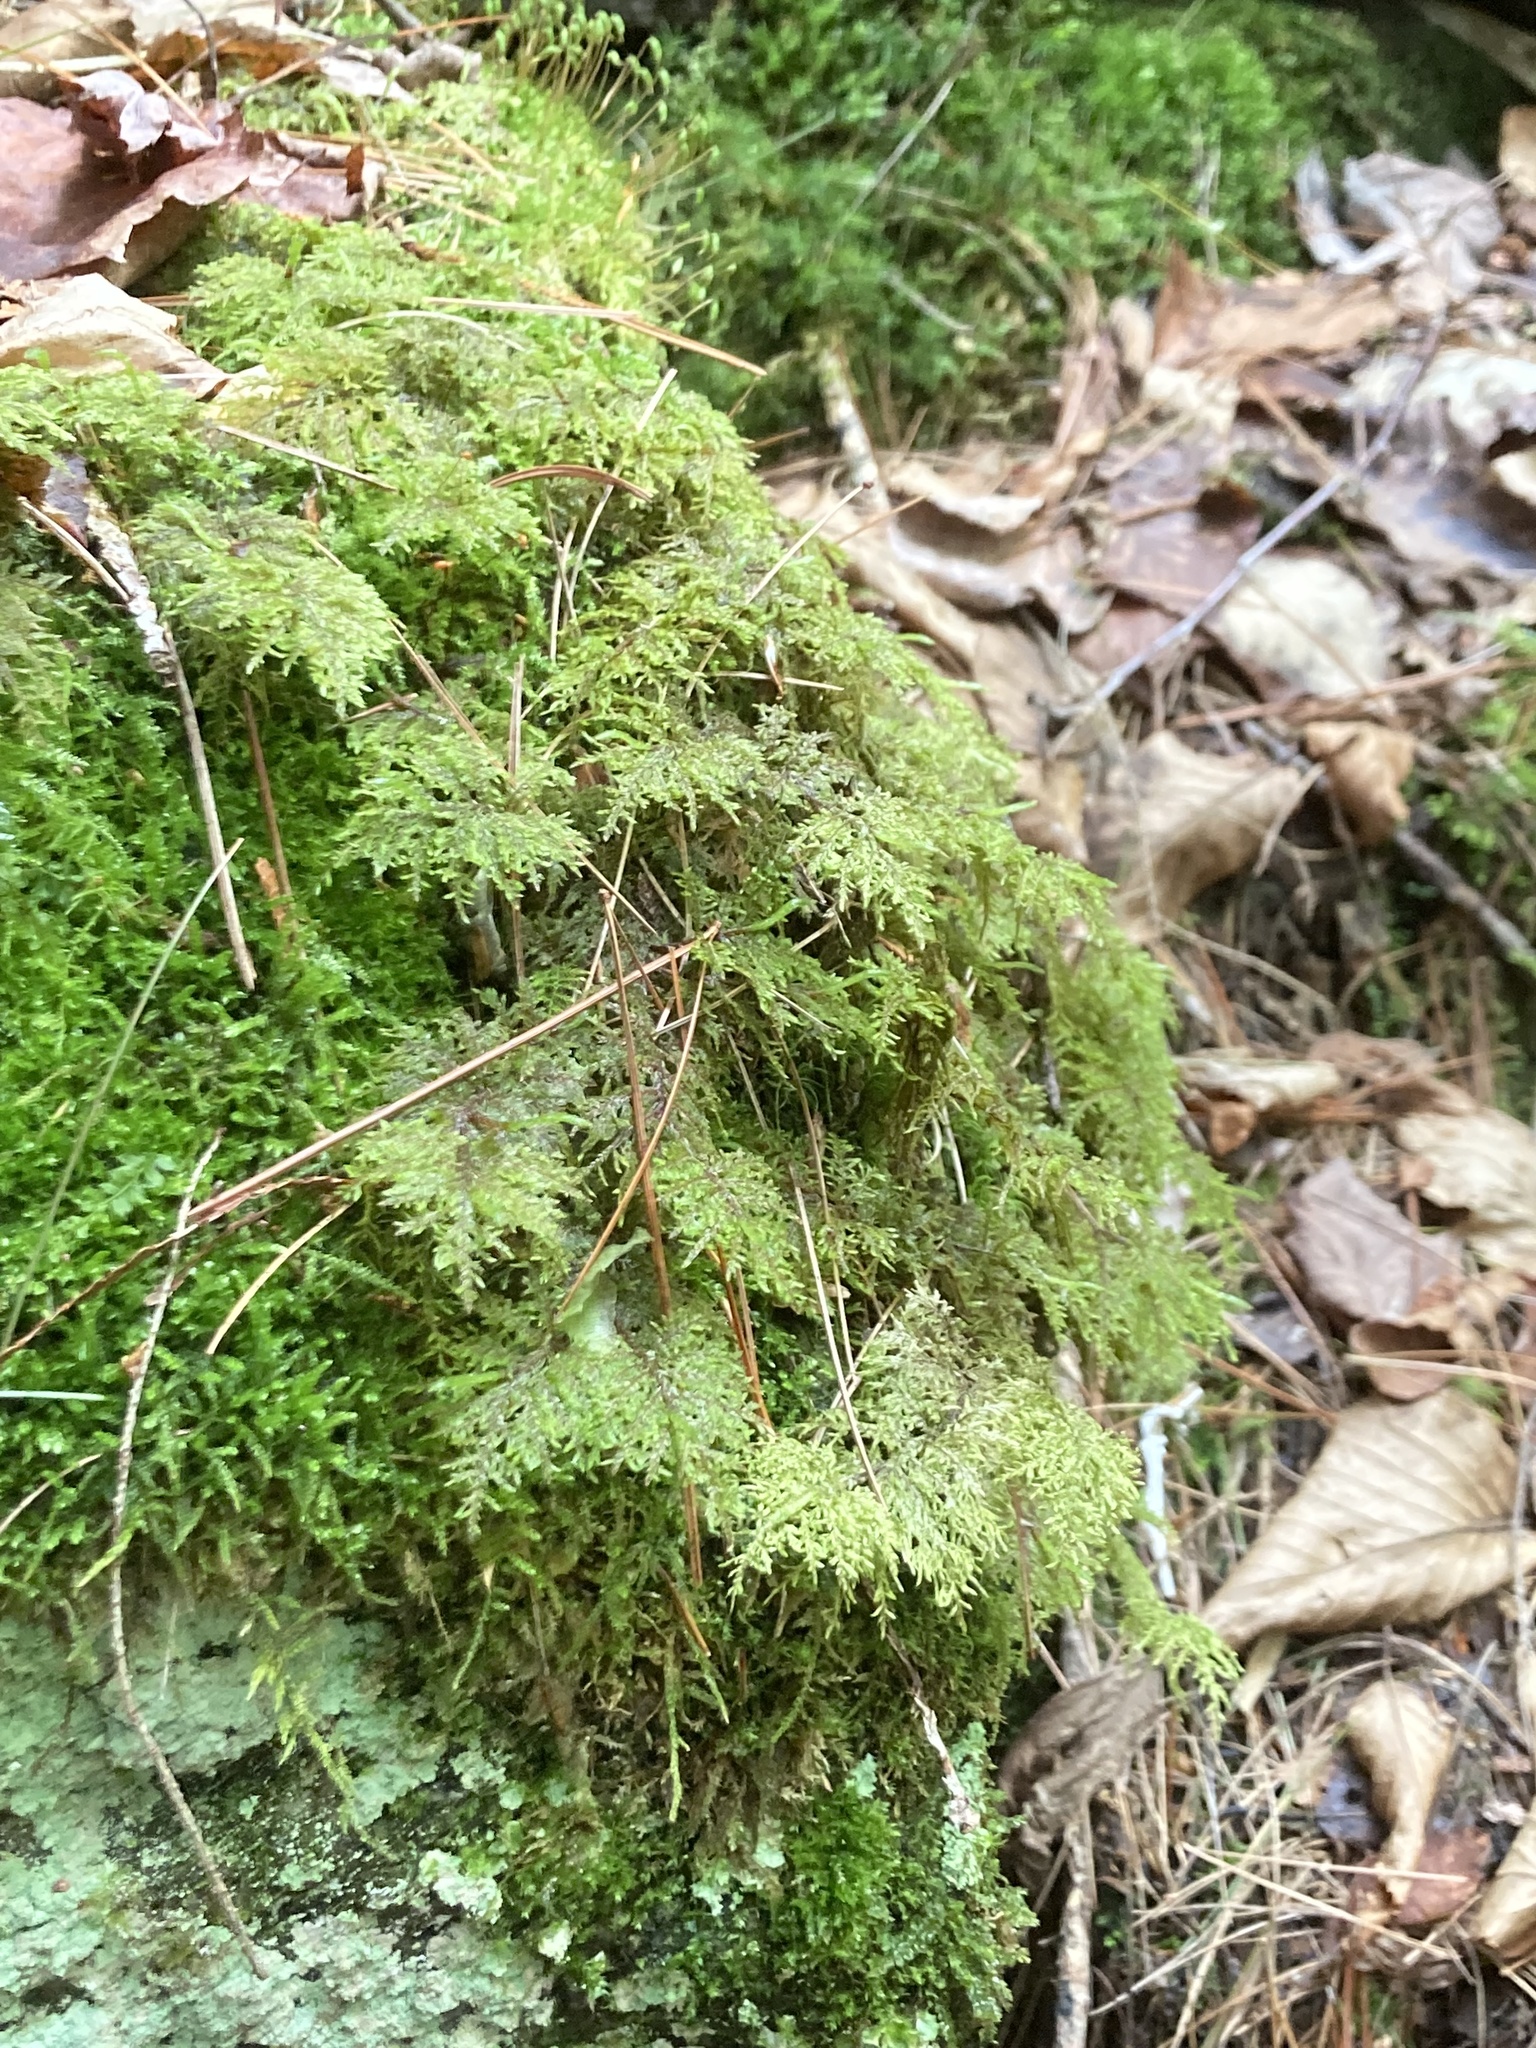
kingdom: Plantae
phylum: Bryophyta
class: Bryopsida
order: Hypnales
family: Hylocomiaceae
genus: Hylocomium
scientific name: Hylocomium splendens
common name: Stairstep moss
